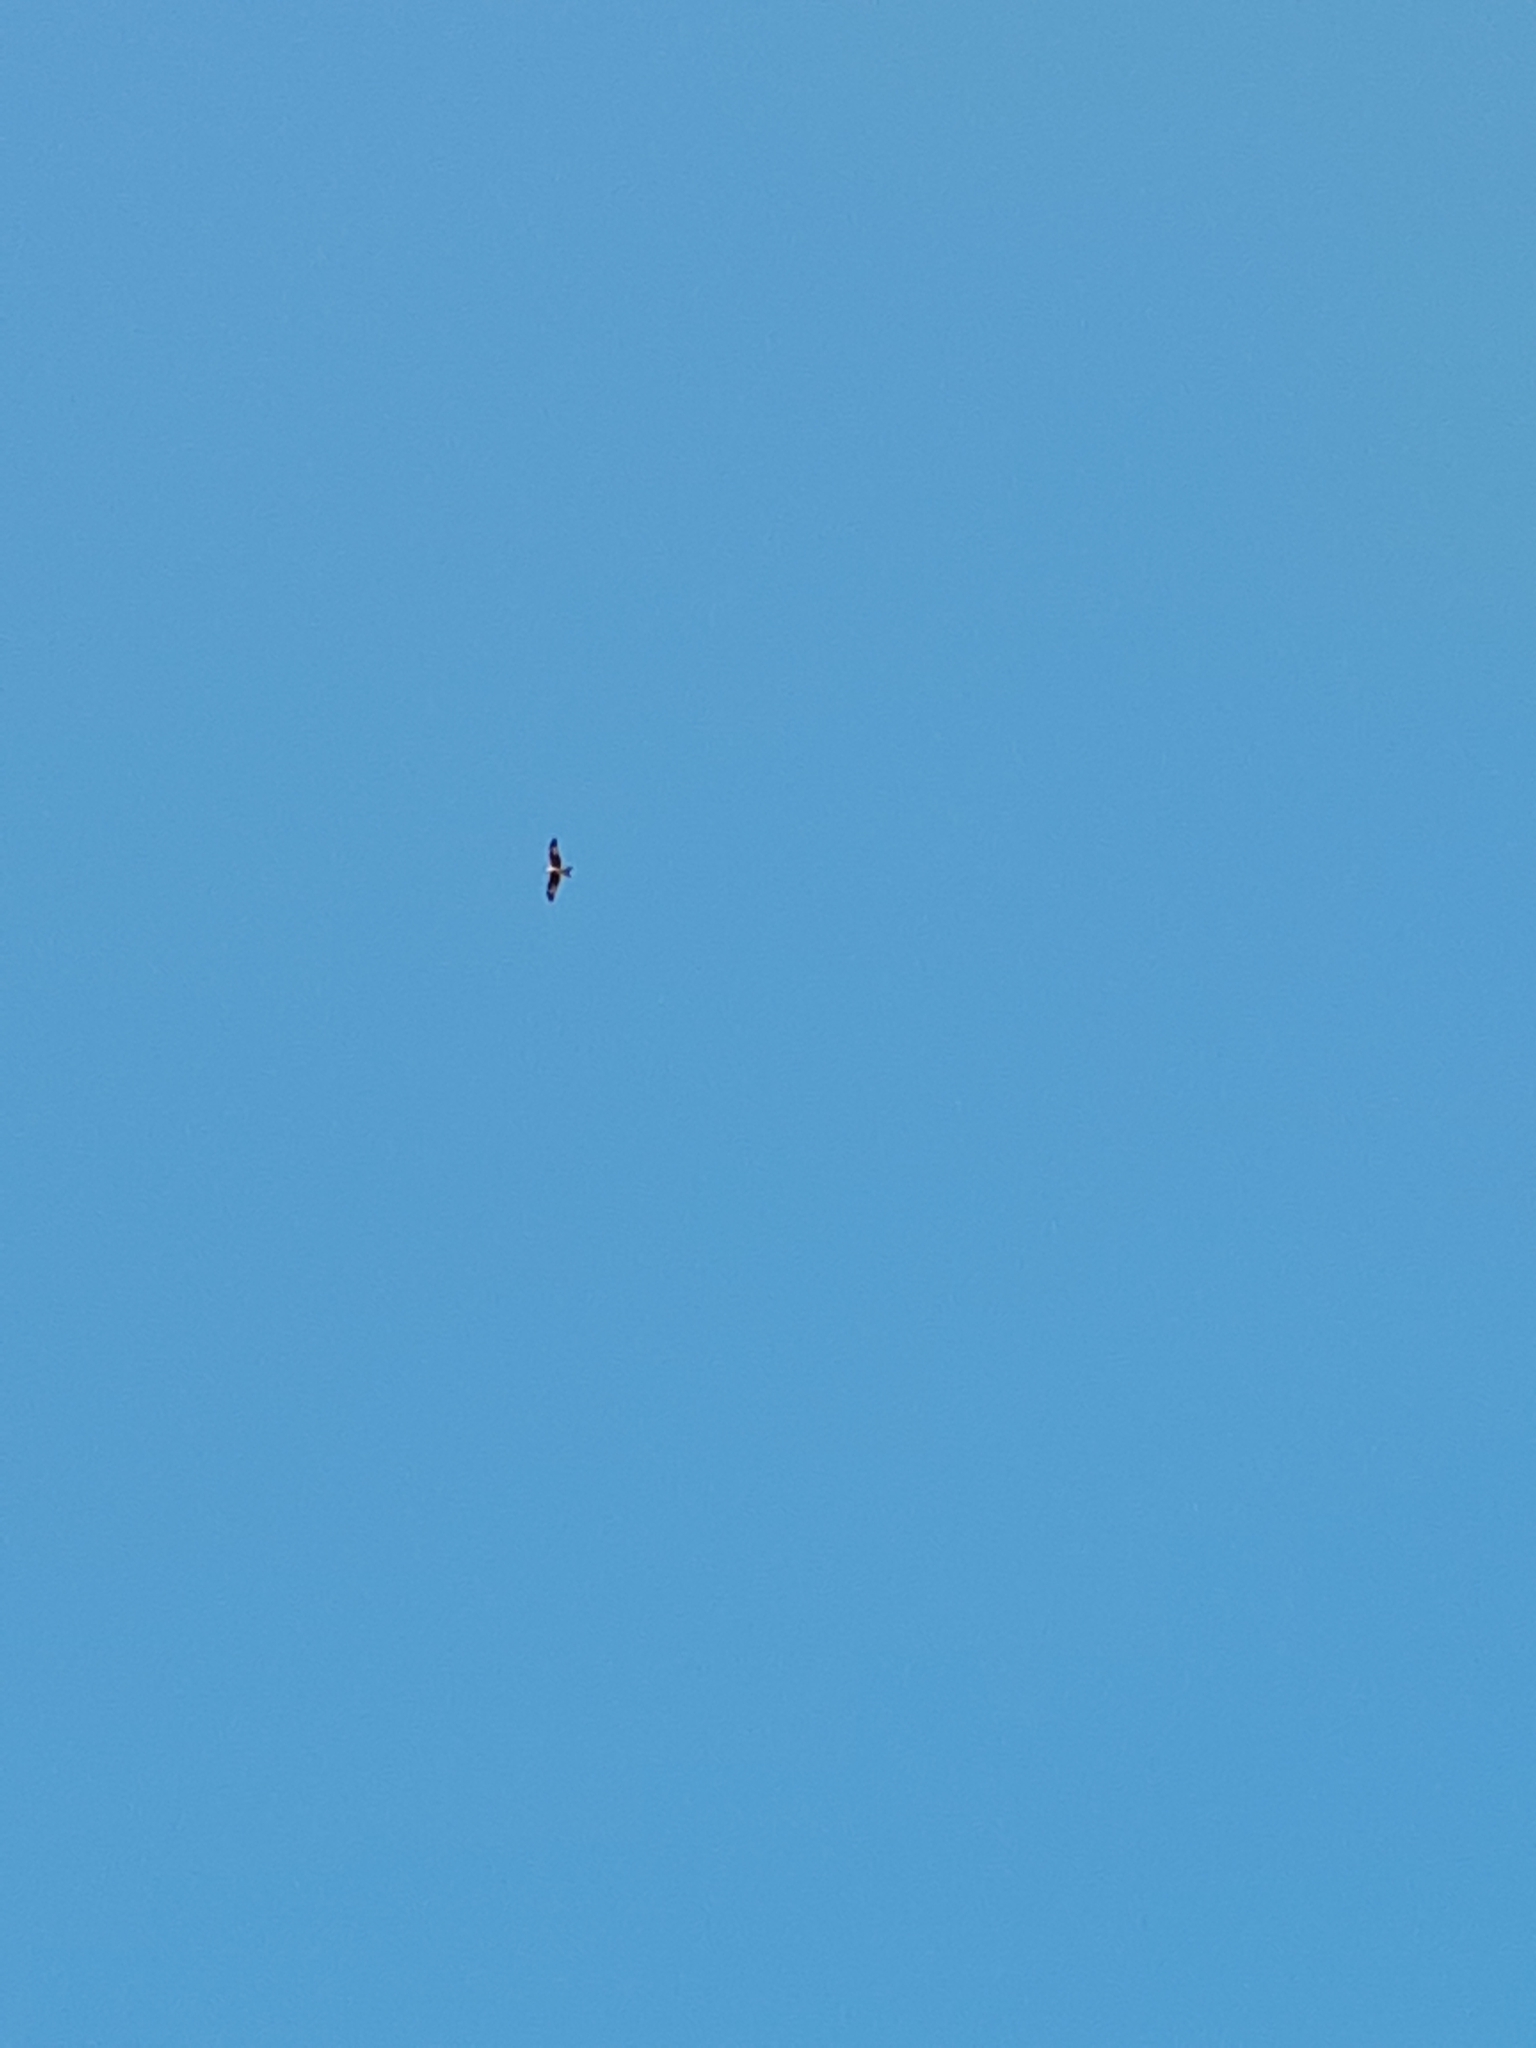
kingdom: Animalia
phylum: Chordata
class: Aves
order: Accipitriformes
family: Accipitridae
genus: Milvus
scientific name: Milvus milvus
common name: Red kite
